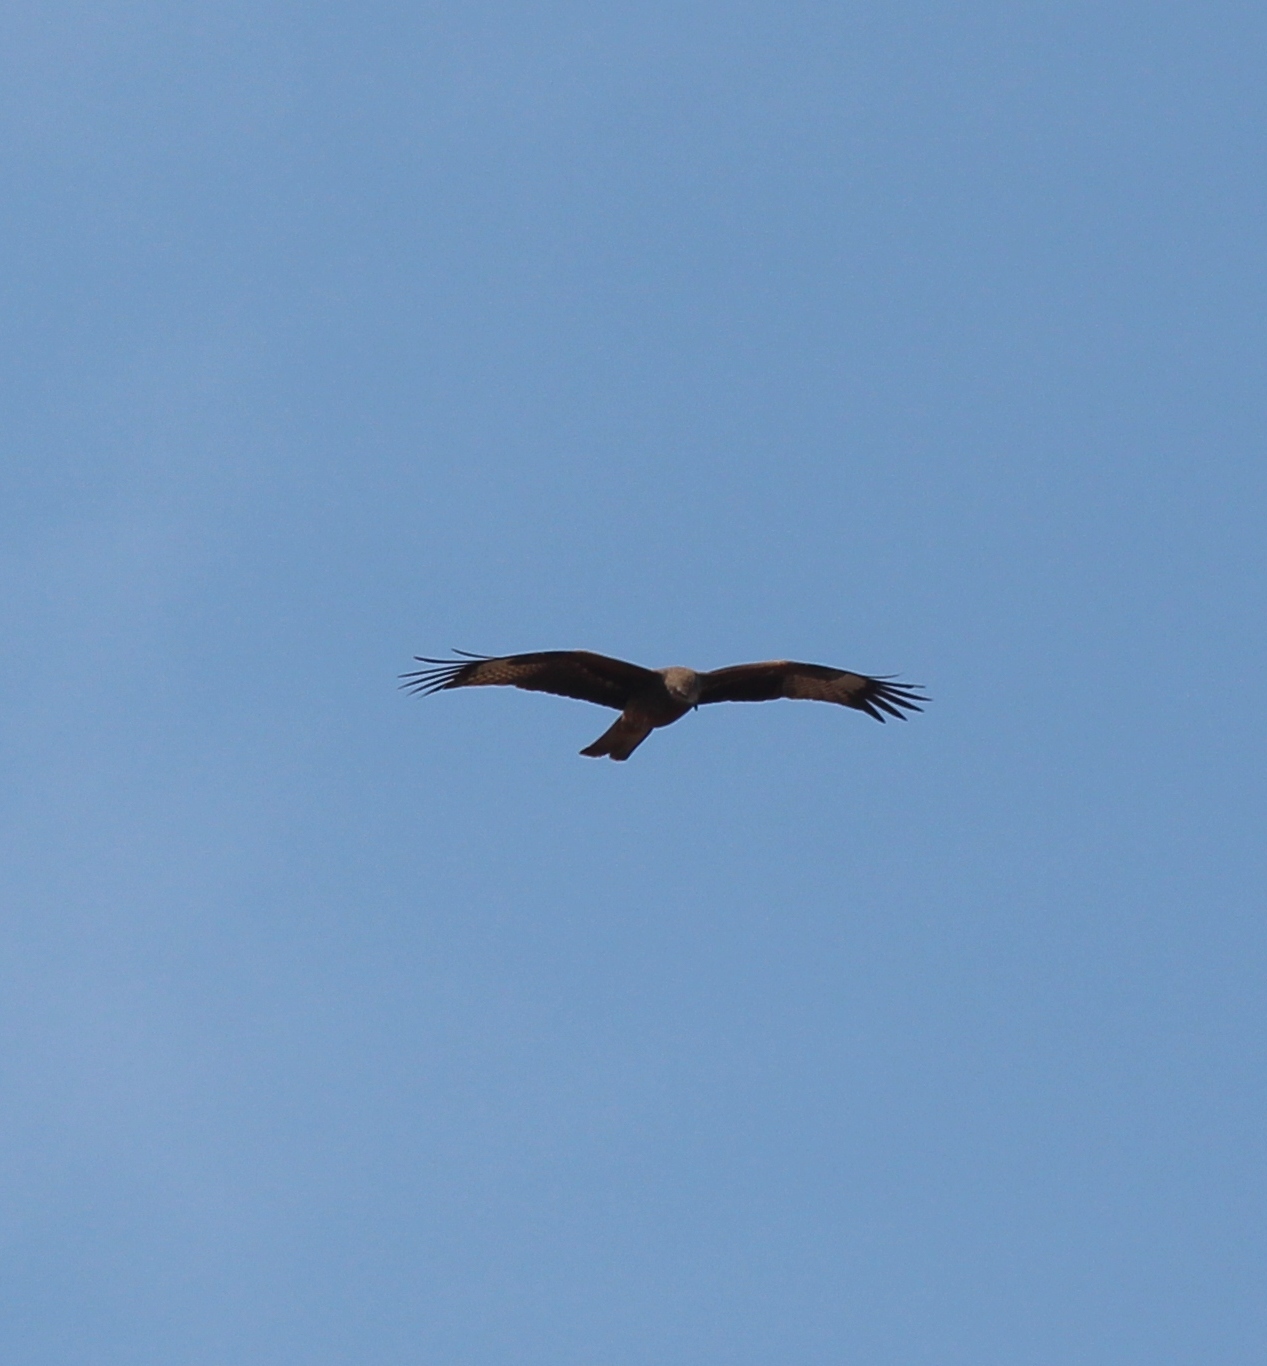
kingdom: Animalia
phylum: Chordata
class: Aves
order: Accipitriformes
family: Accipitridae
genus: Milvus
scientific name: Milvus migrans
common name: Black kite
